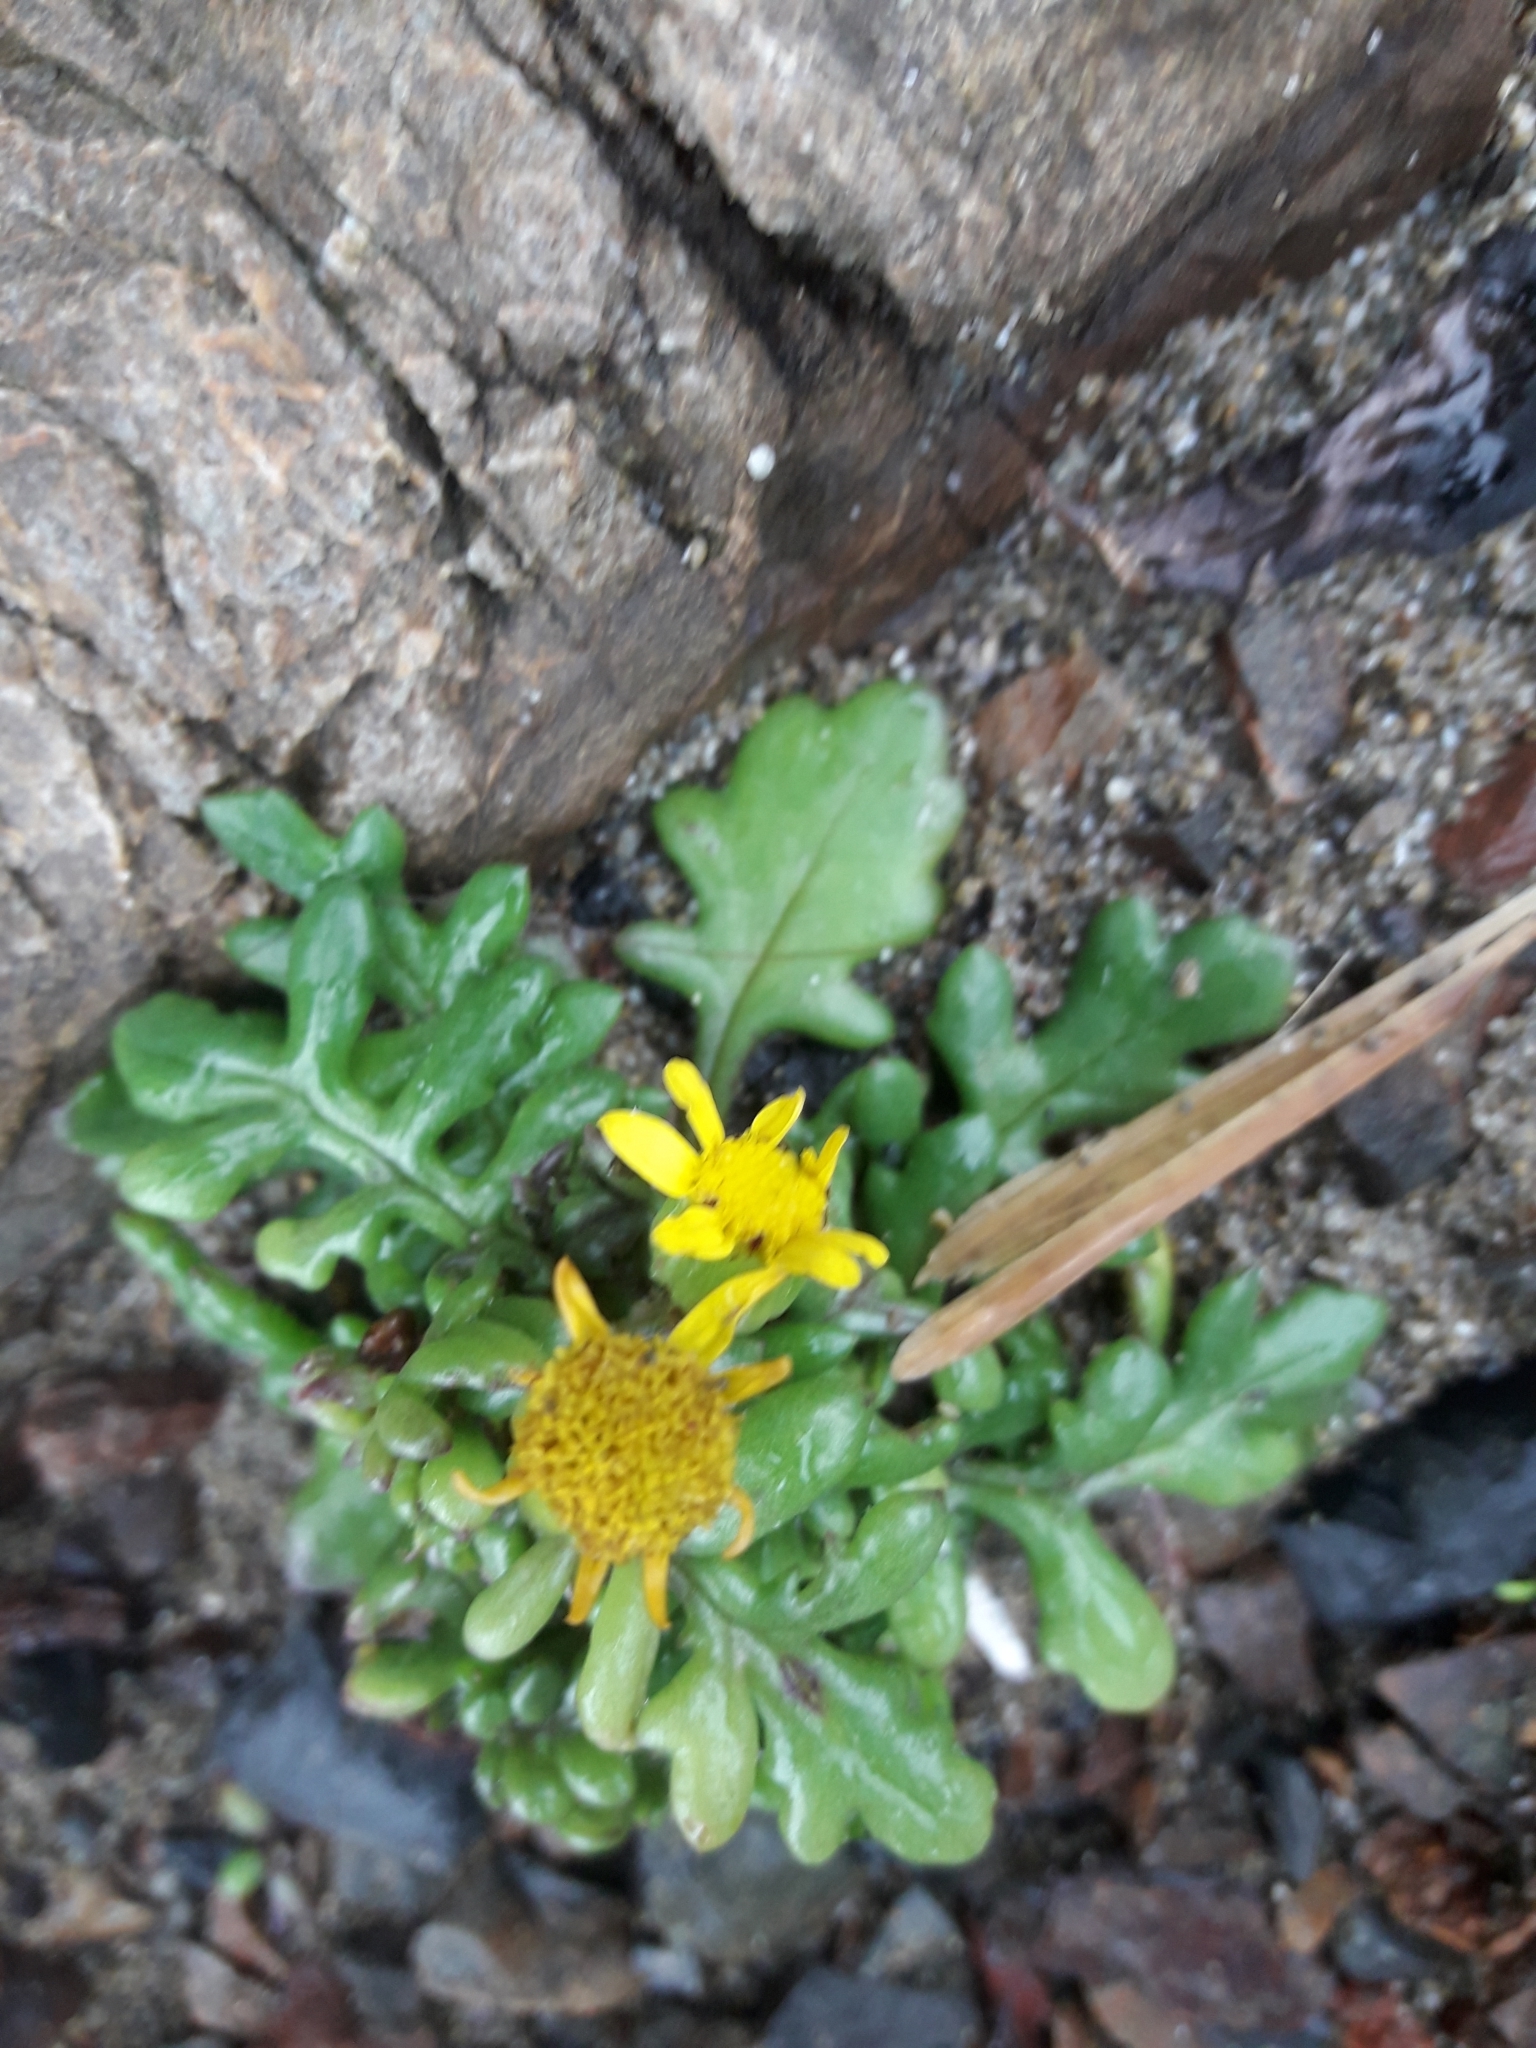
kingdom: Plantae
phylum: Tracheophyta
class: Magnoliopsida
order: Asterales
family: Asteraceae
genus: Senecio
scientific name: Senecio lautus
